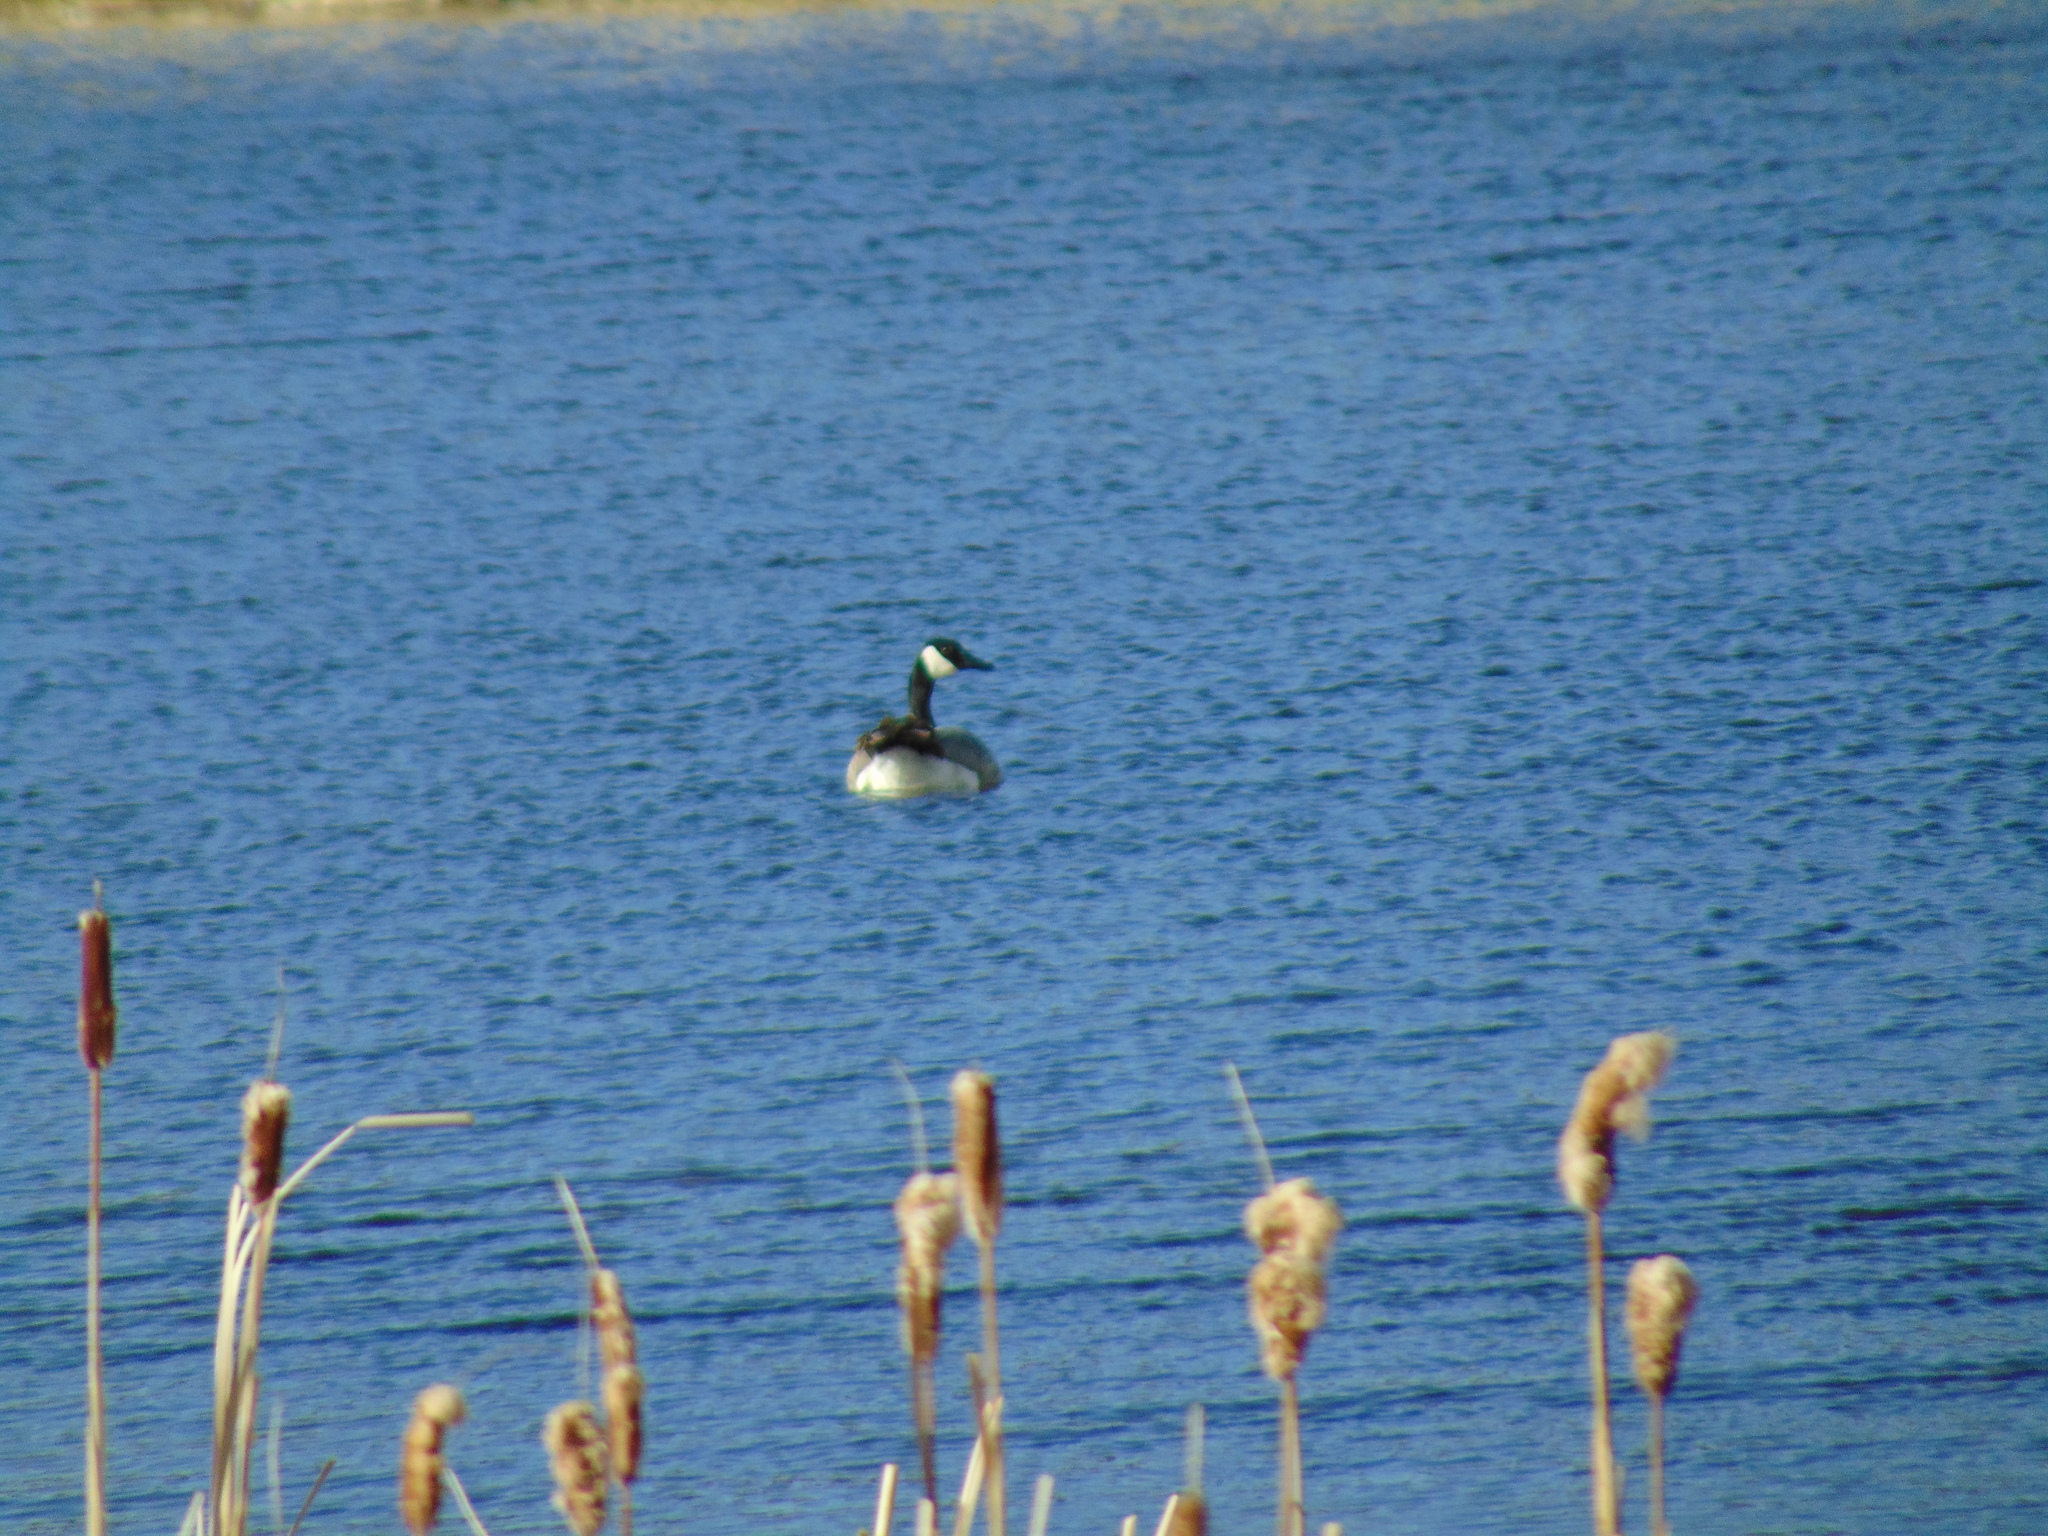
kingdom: Animalia
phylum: Chordata
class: Aves
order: Anseriformes
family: Anatidae
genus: Branta
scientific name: Branta canadensis
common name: Canada goose
